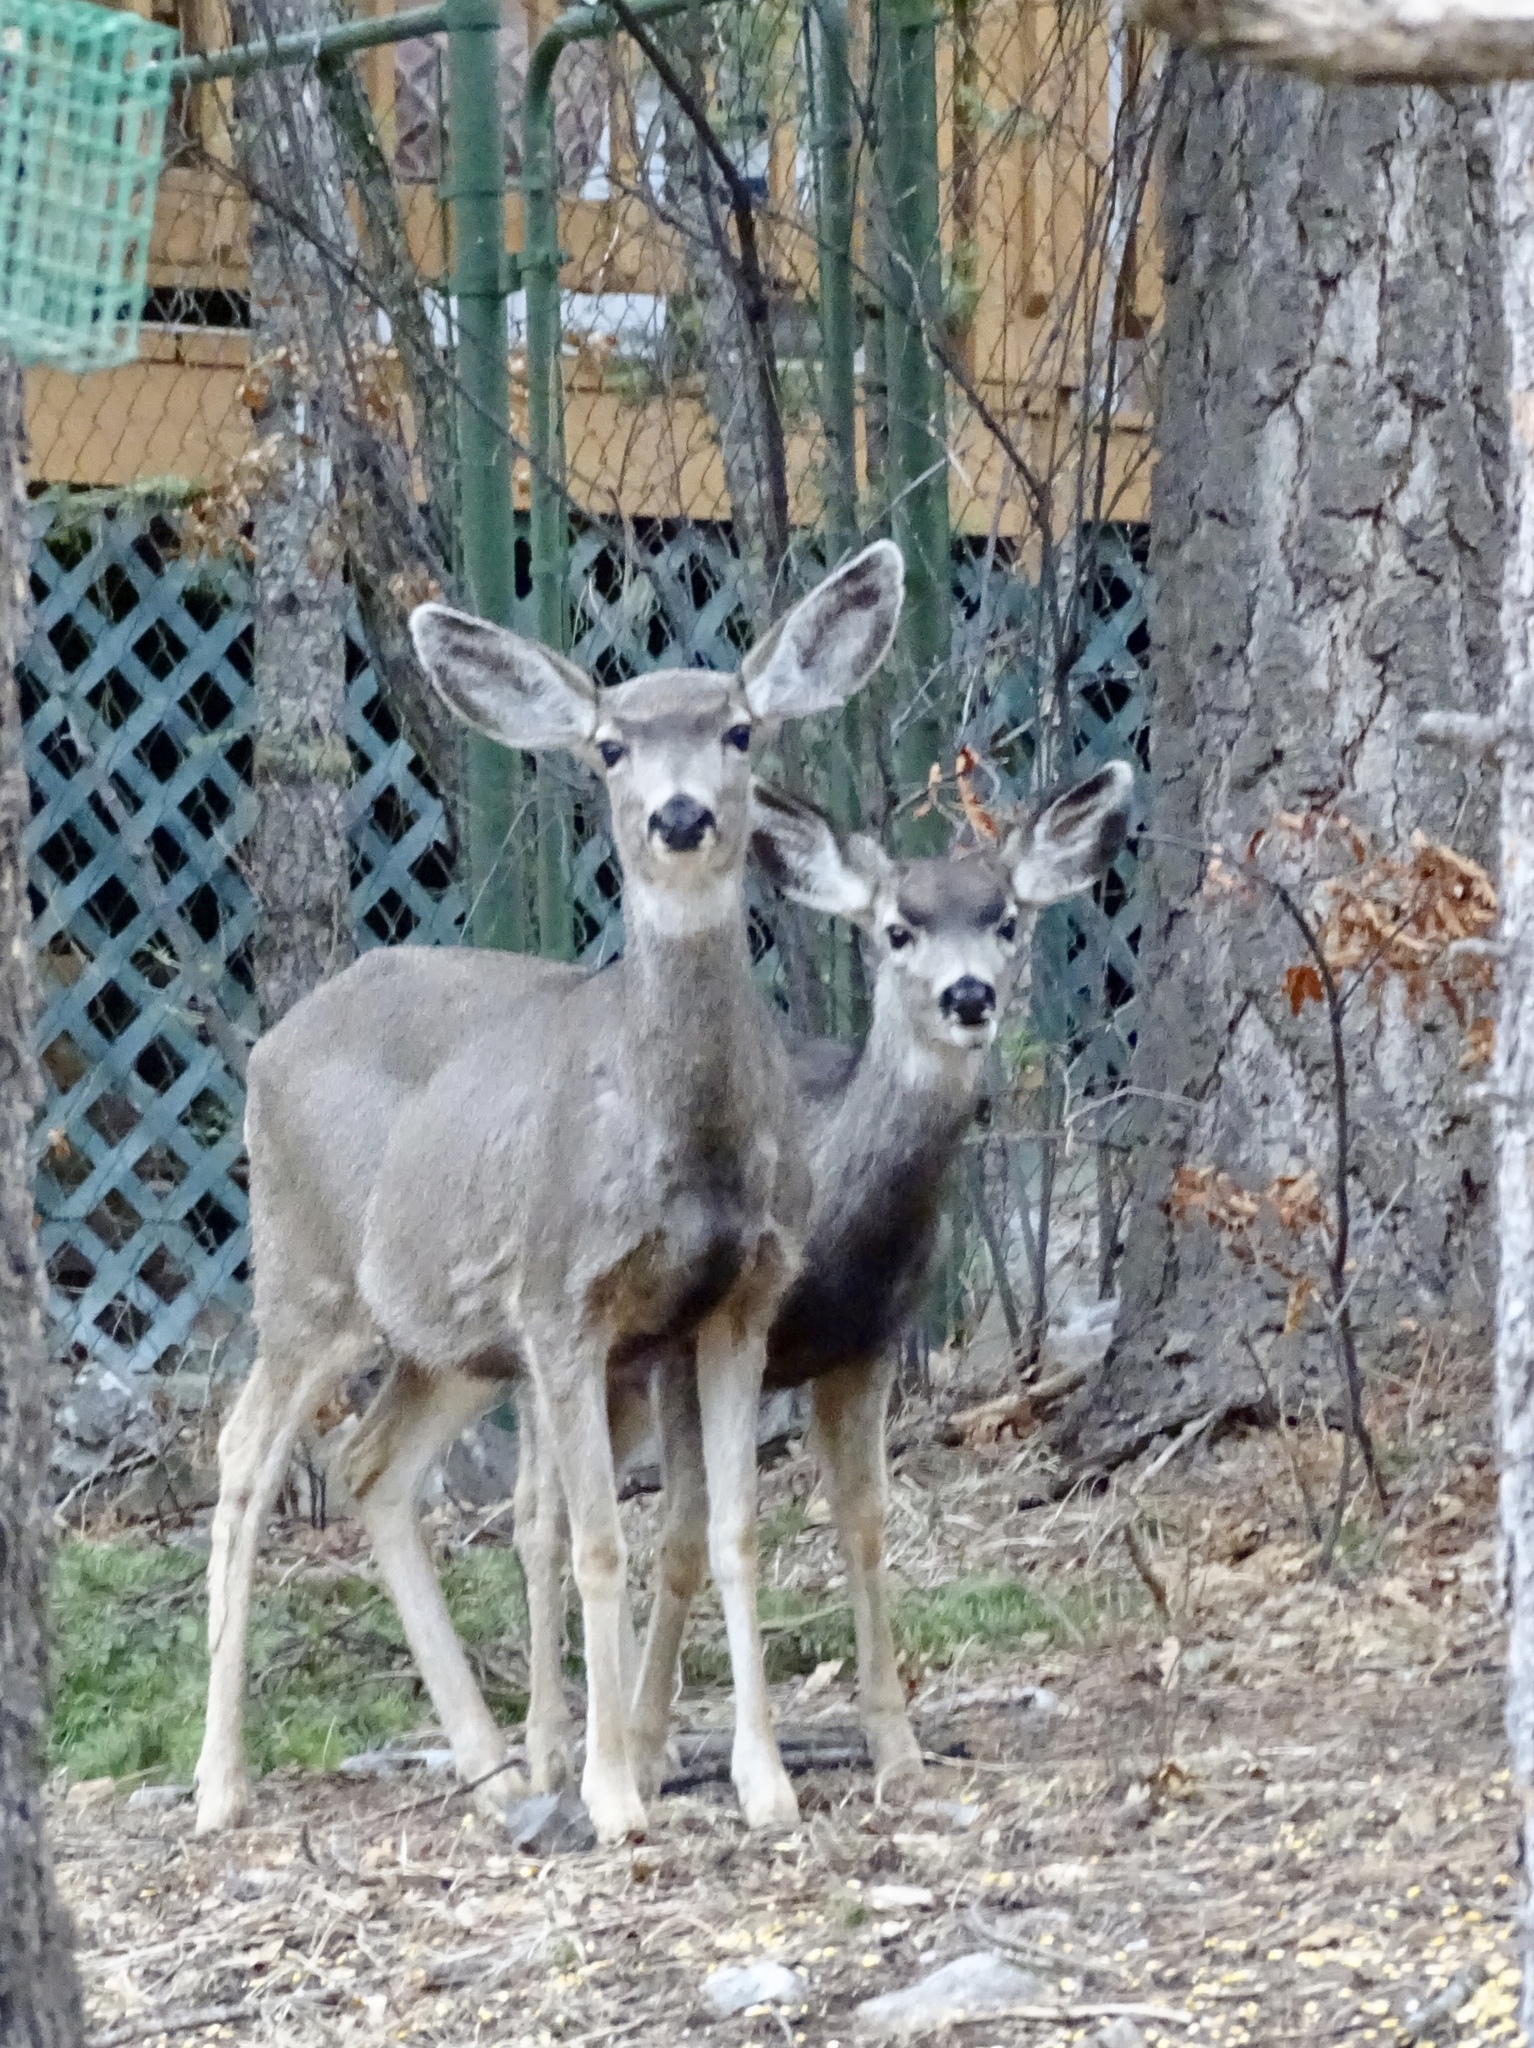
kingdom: Animalia
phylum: Chordata
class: Mammalia
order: Artiodactyla
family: Cervidae
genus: Odocoileus
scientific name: Odocoileus hemionus
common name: Mule deer
